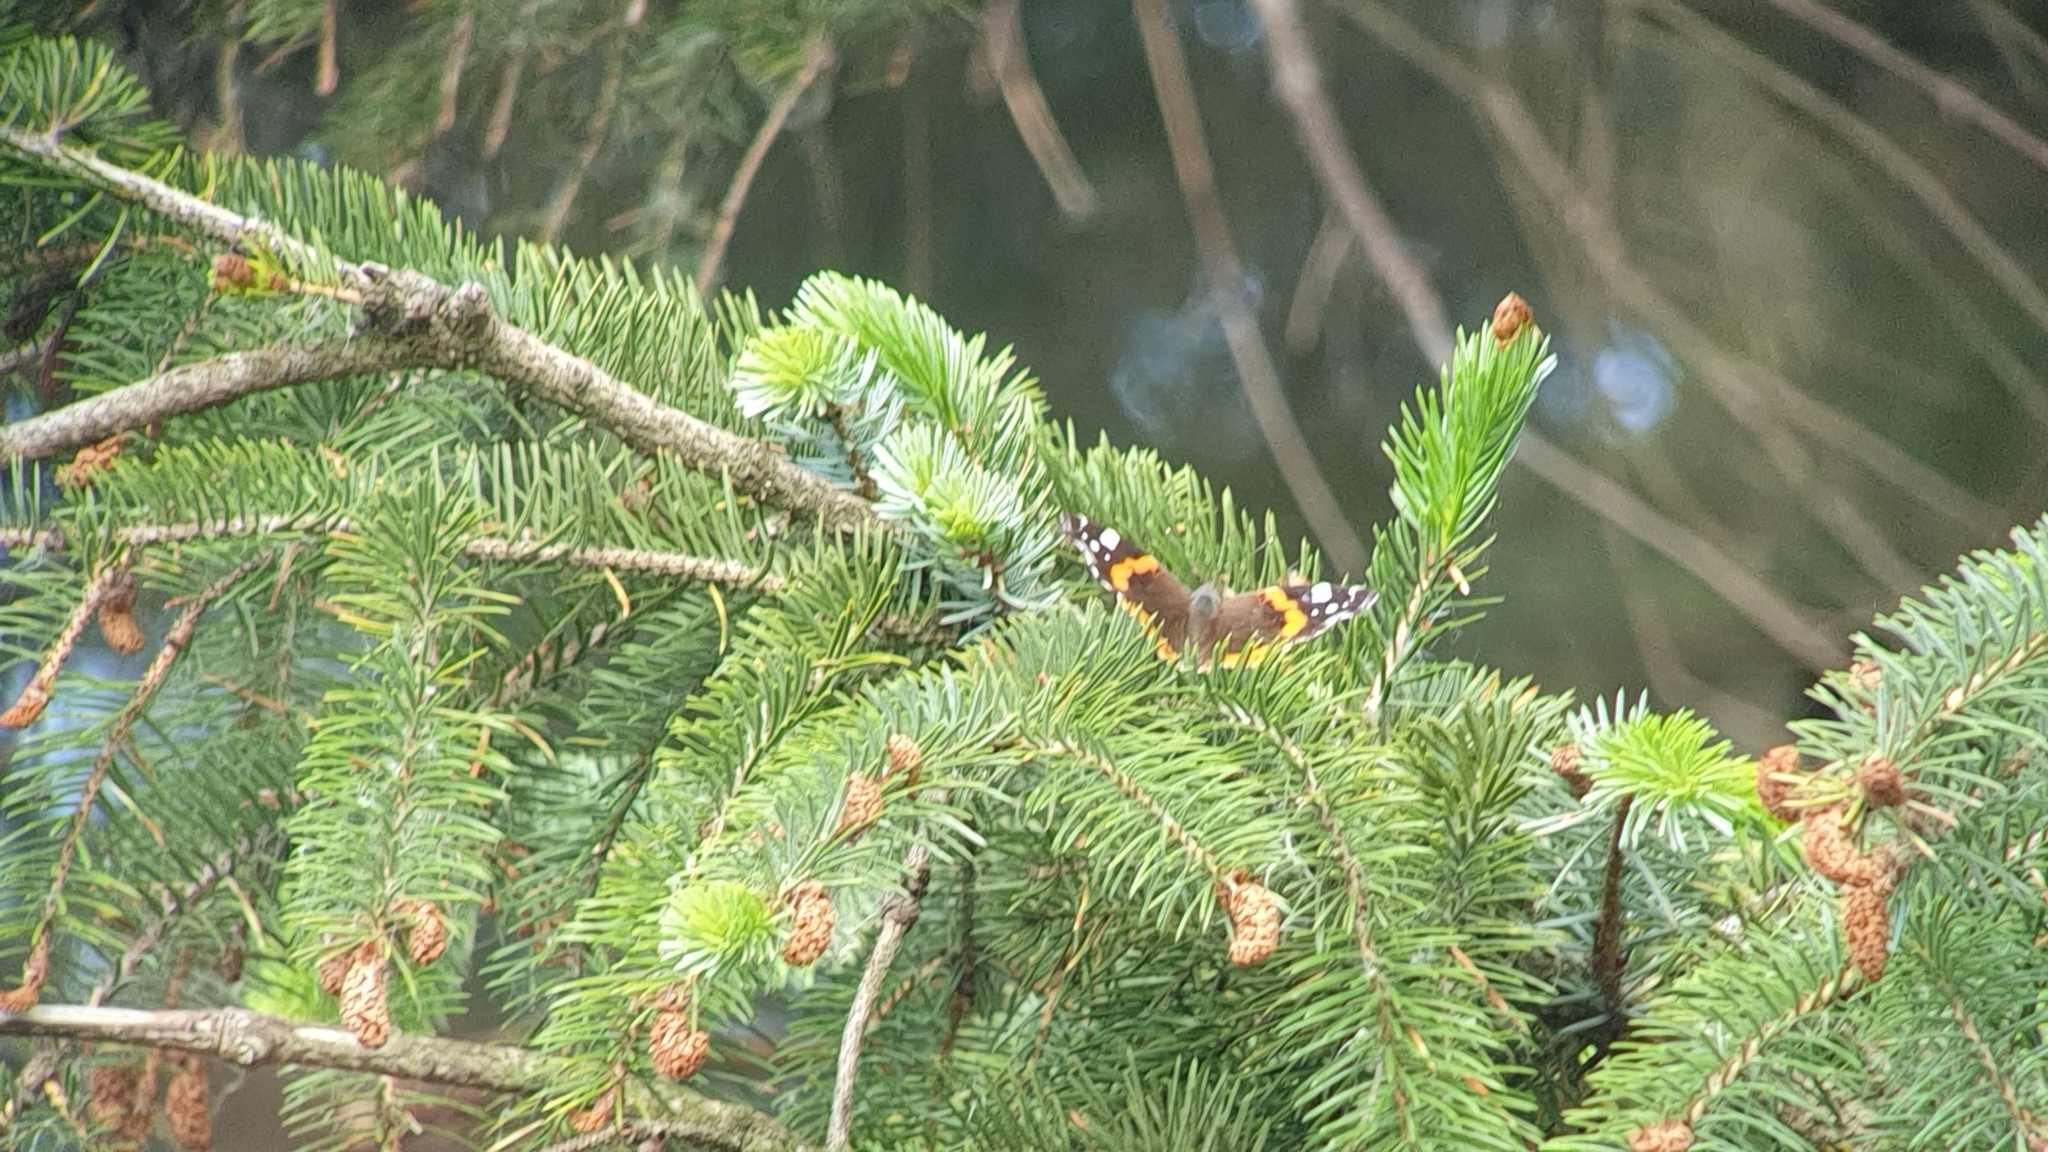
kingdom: Animalia
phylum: Arthropoda
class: Insecta
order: Lepidoptera
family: Nymphalidae
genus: Vanessa
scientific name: Vanessa atalanta
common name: Red admiral
